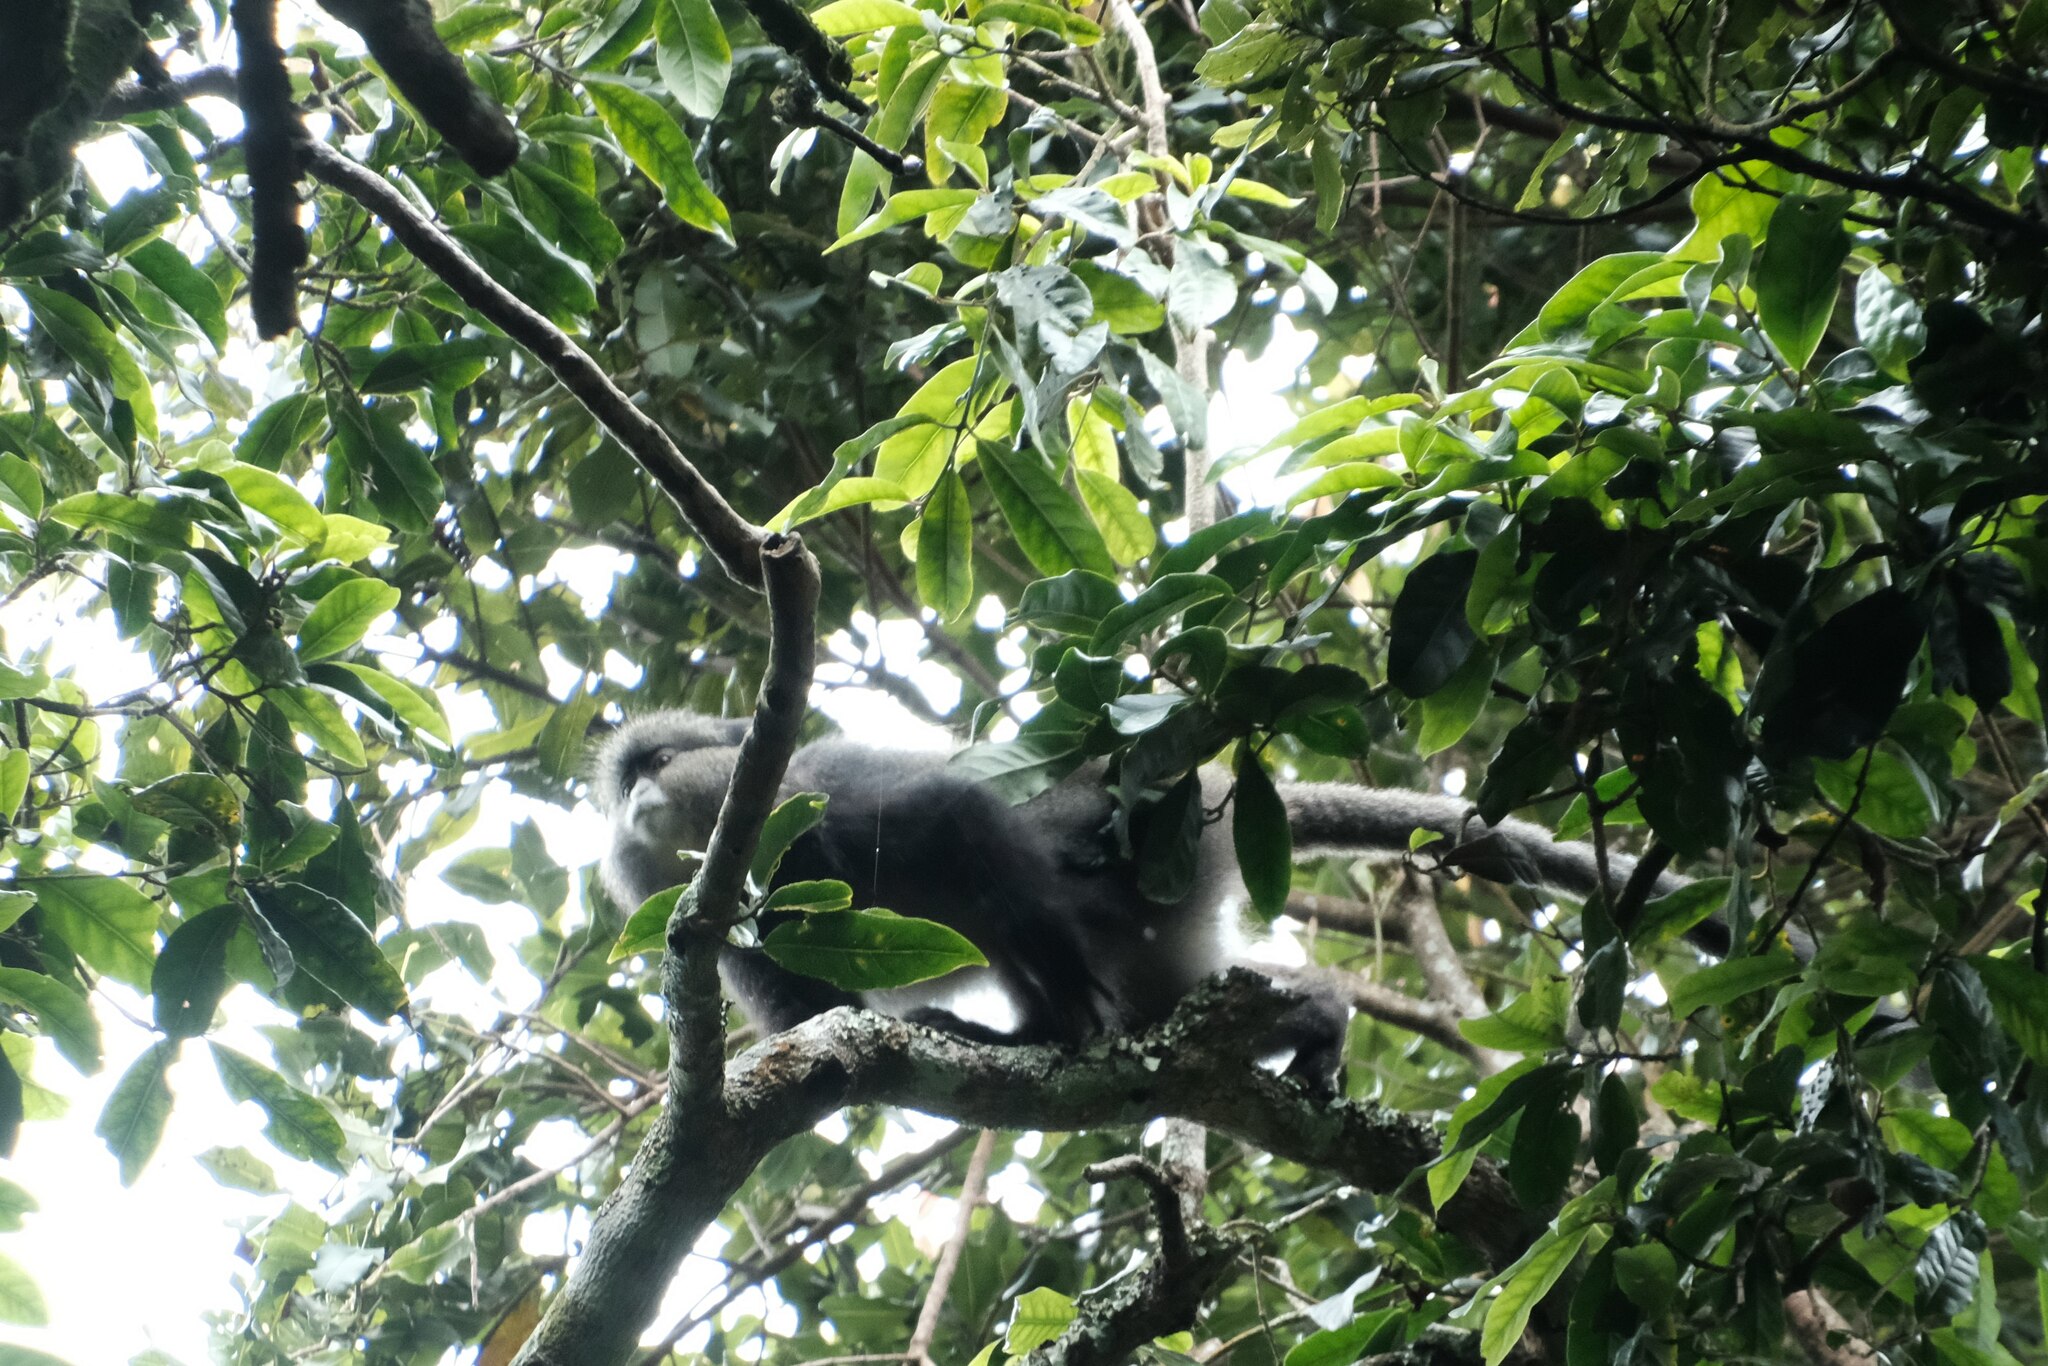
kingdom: Animalia
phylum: Chordata
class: Mammalia
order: Primates
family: Cercopithecidae
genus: Cercopithecus
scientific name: Cercopithecus mitis
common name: Blue monkey
